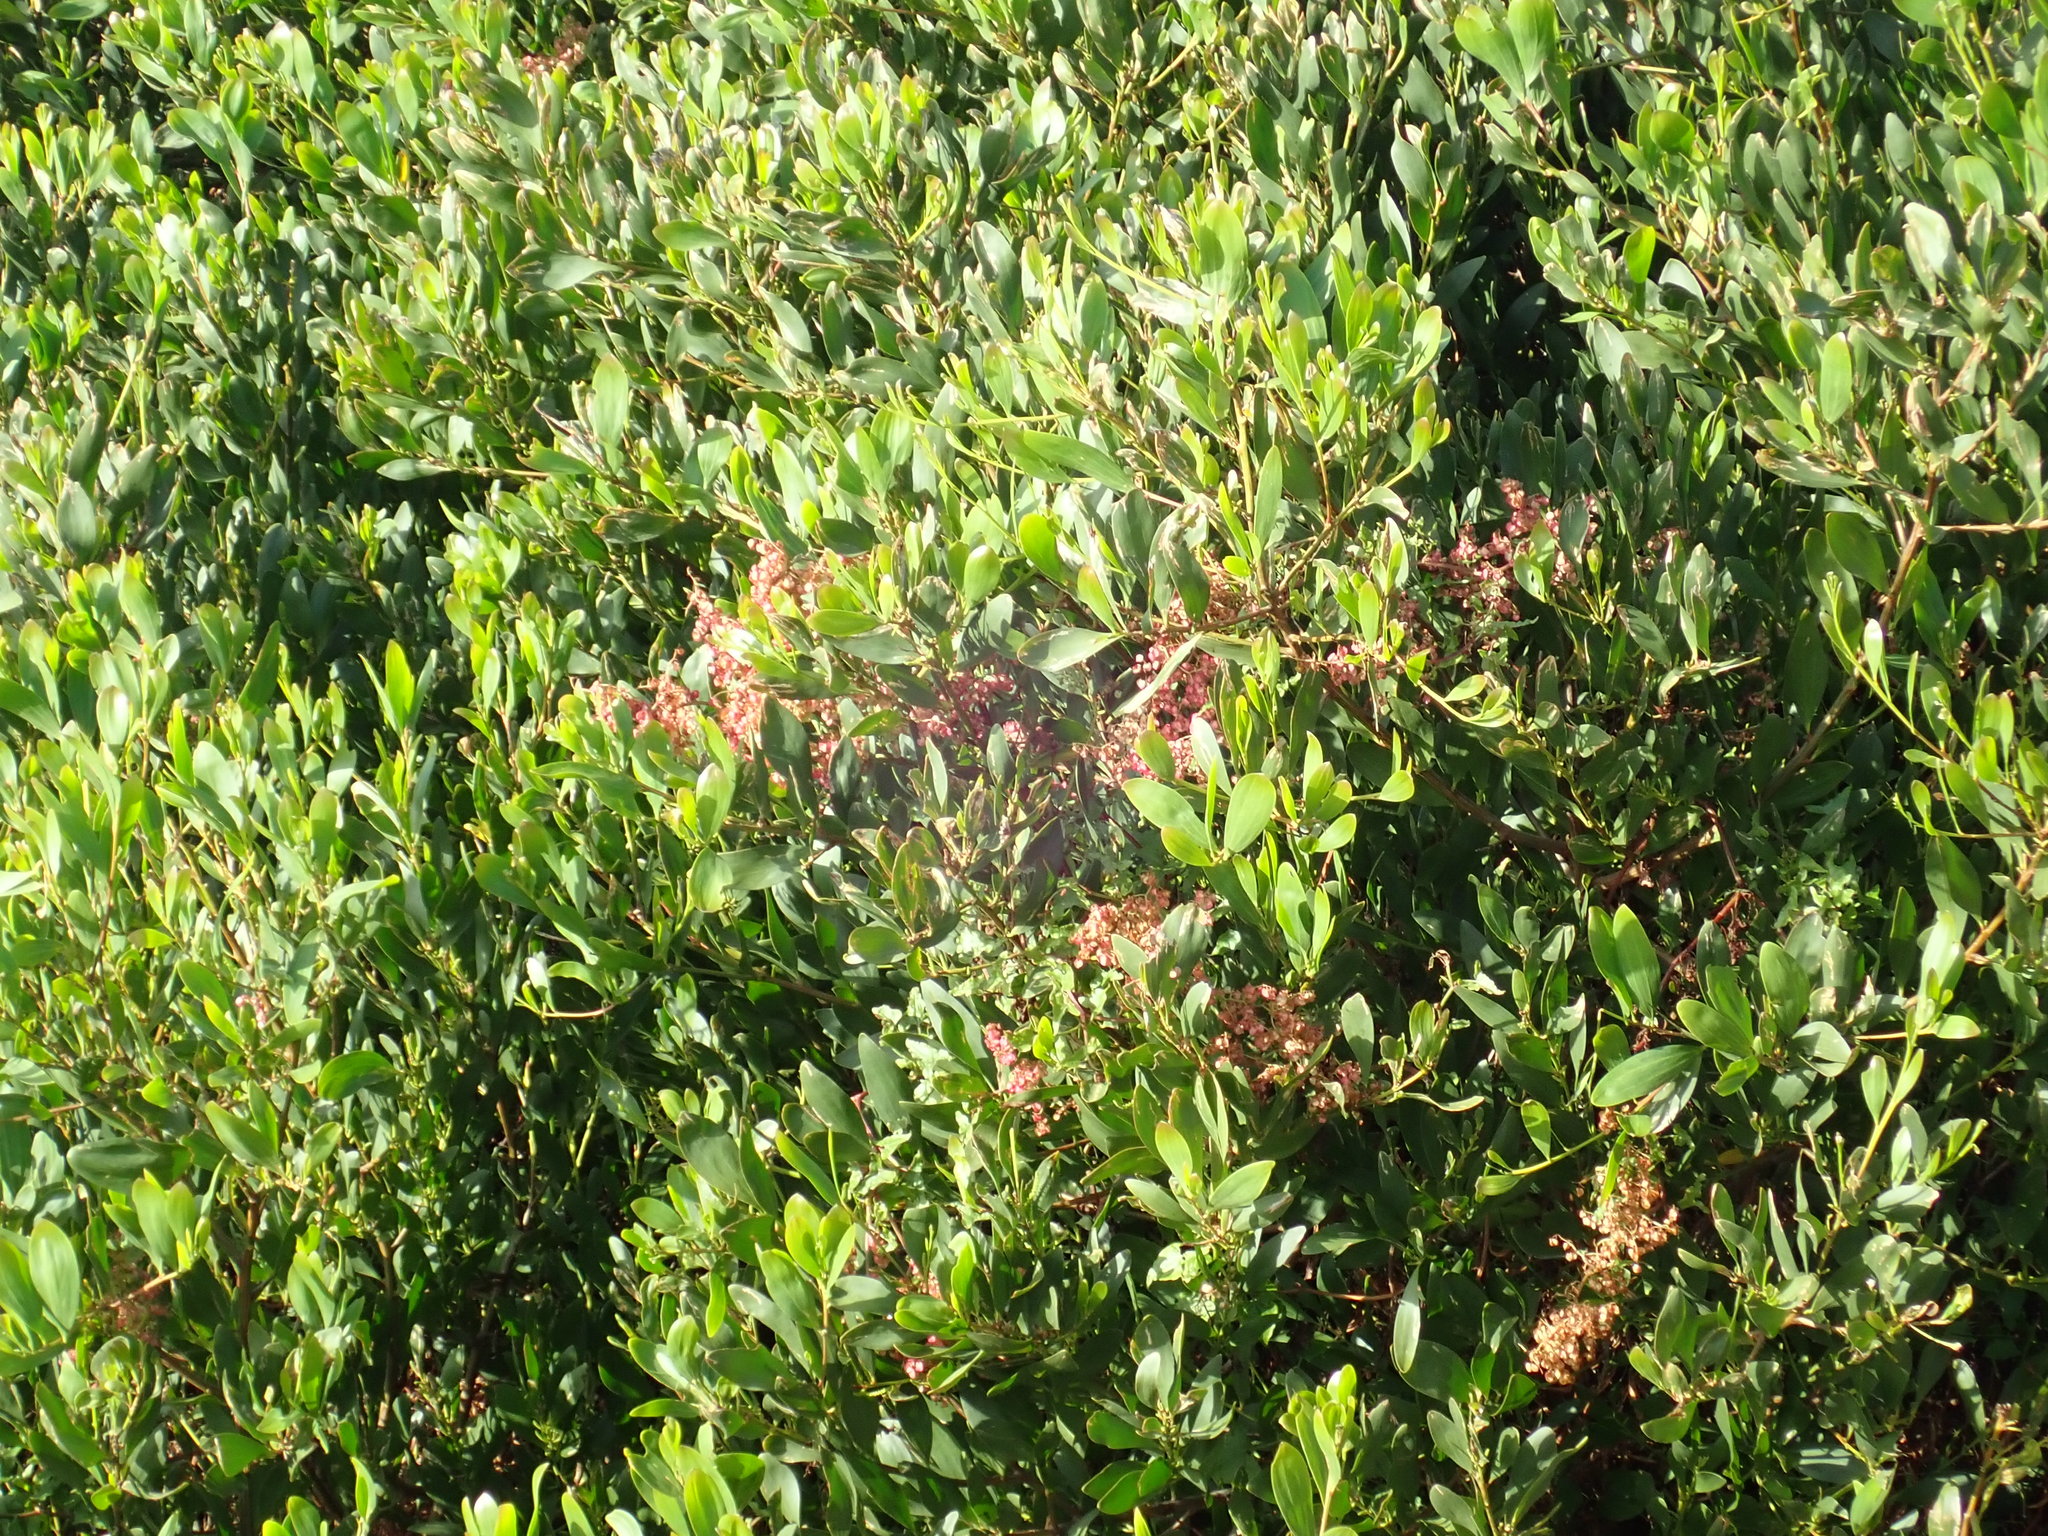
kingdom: Plantae
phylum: Tracheophyta
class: Magnoliopsida
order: Fabales
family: Fabaceae
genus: Acacia
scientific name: Acacia longifolia
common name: Sydney golden wattle
